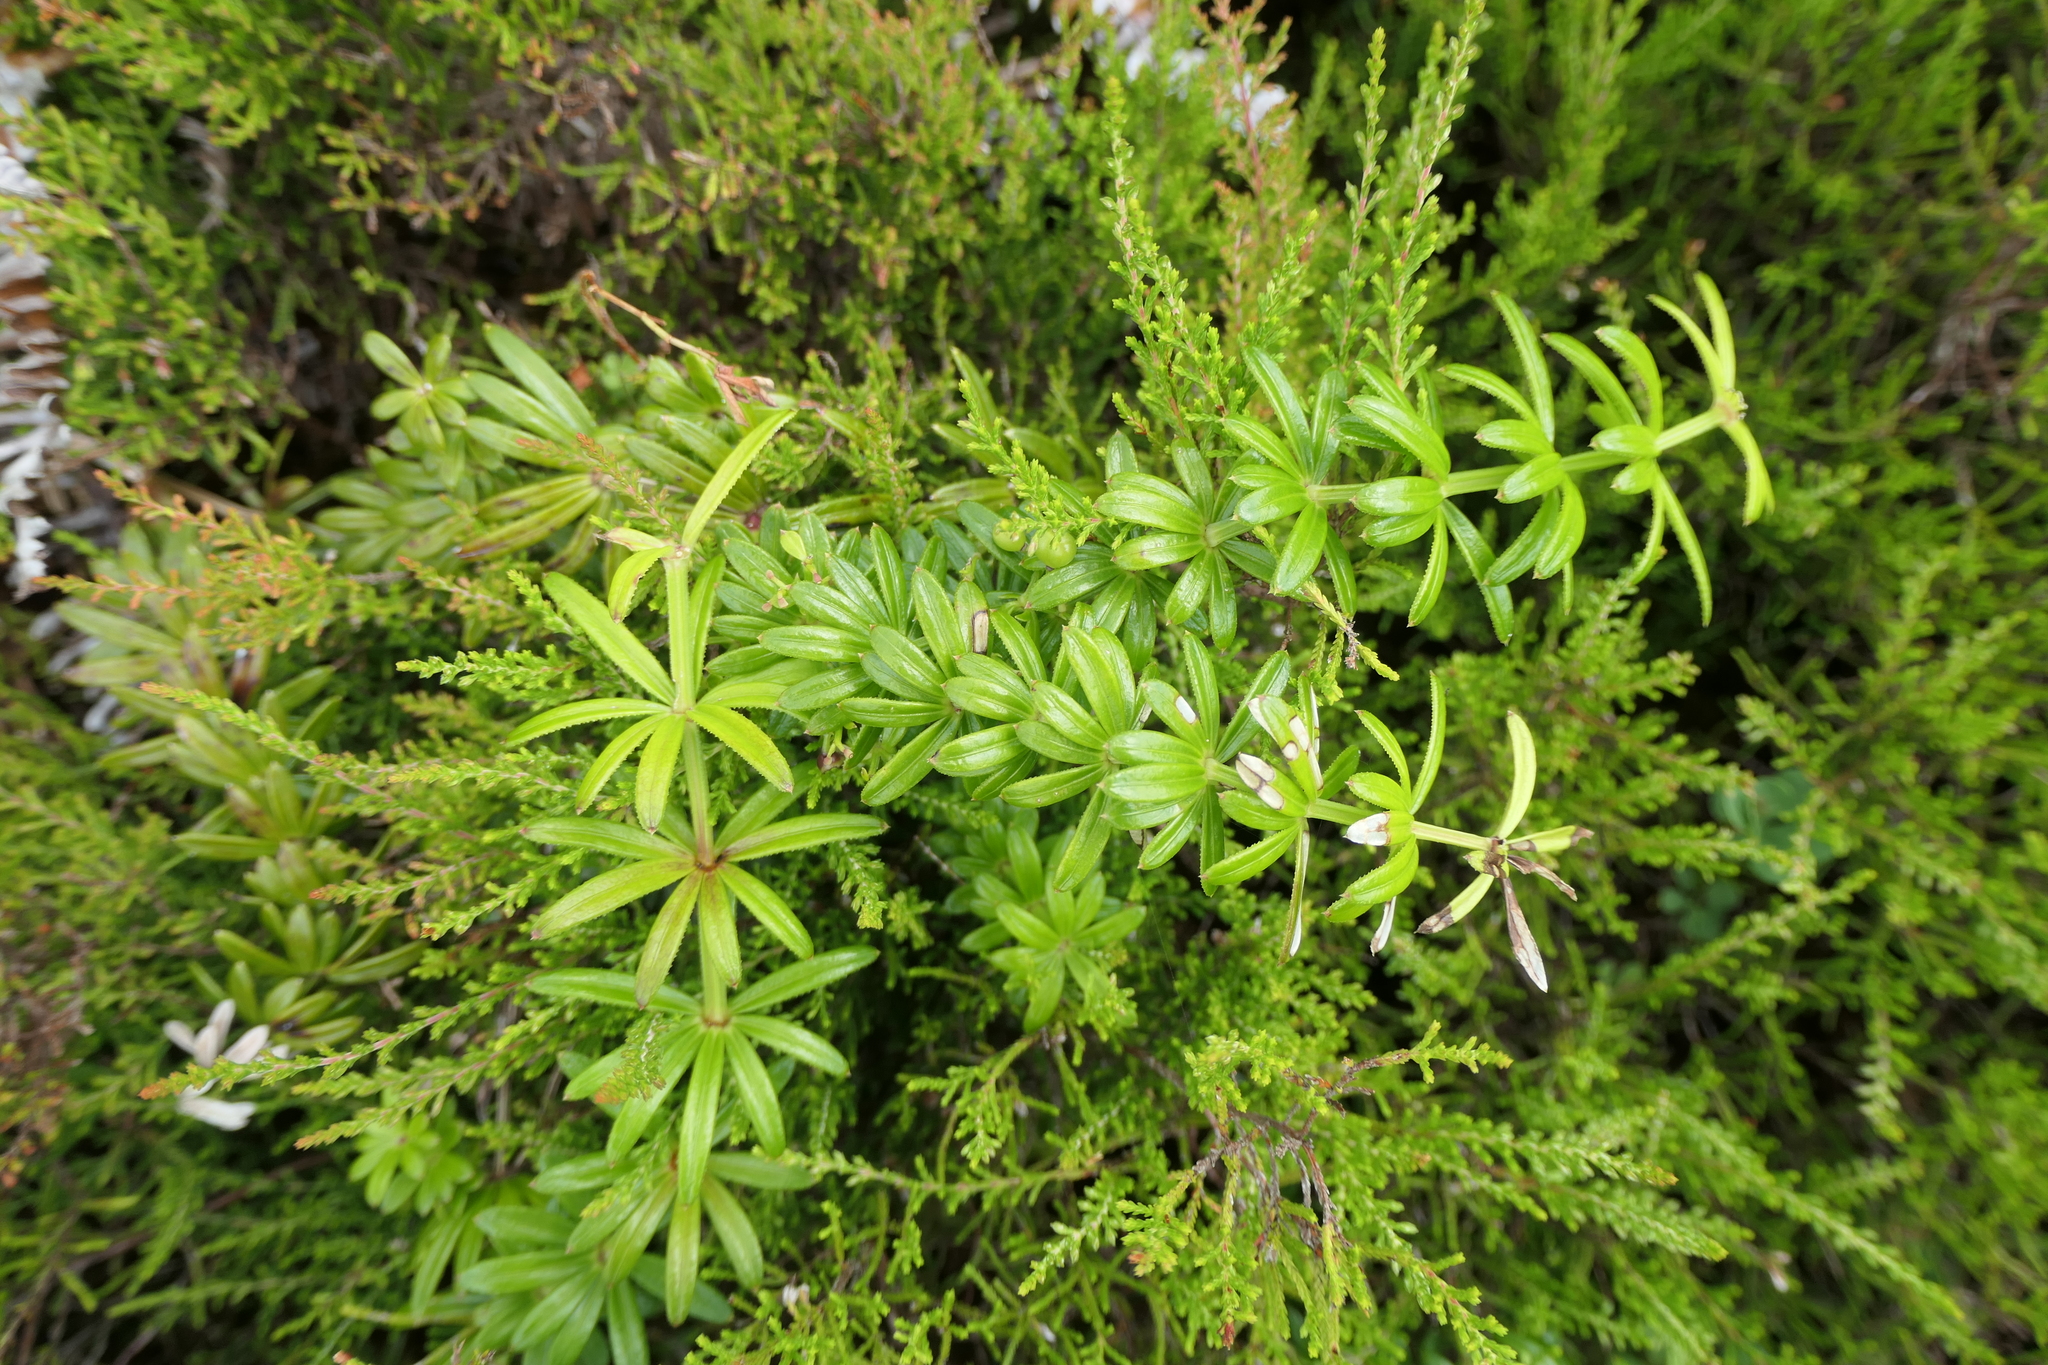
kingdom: Plantae
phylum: Tracheophyta
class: Magnoliopsida
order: Gentianales
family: Rubiaceae
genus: Rubia
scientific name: Rubia agostinhoi
